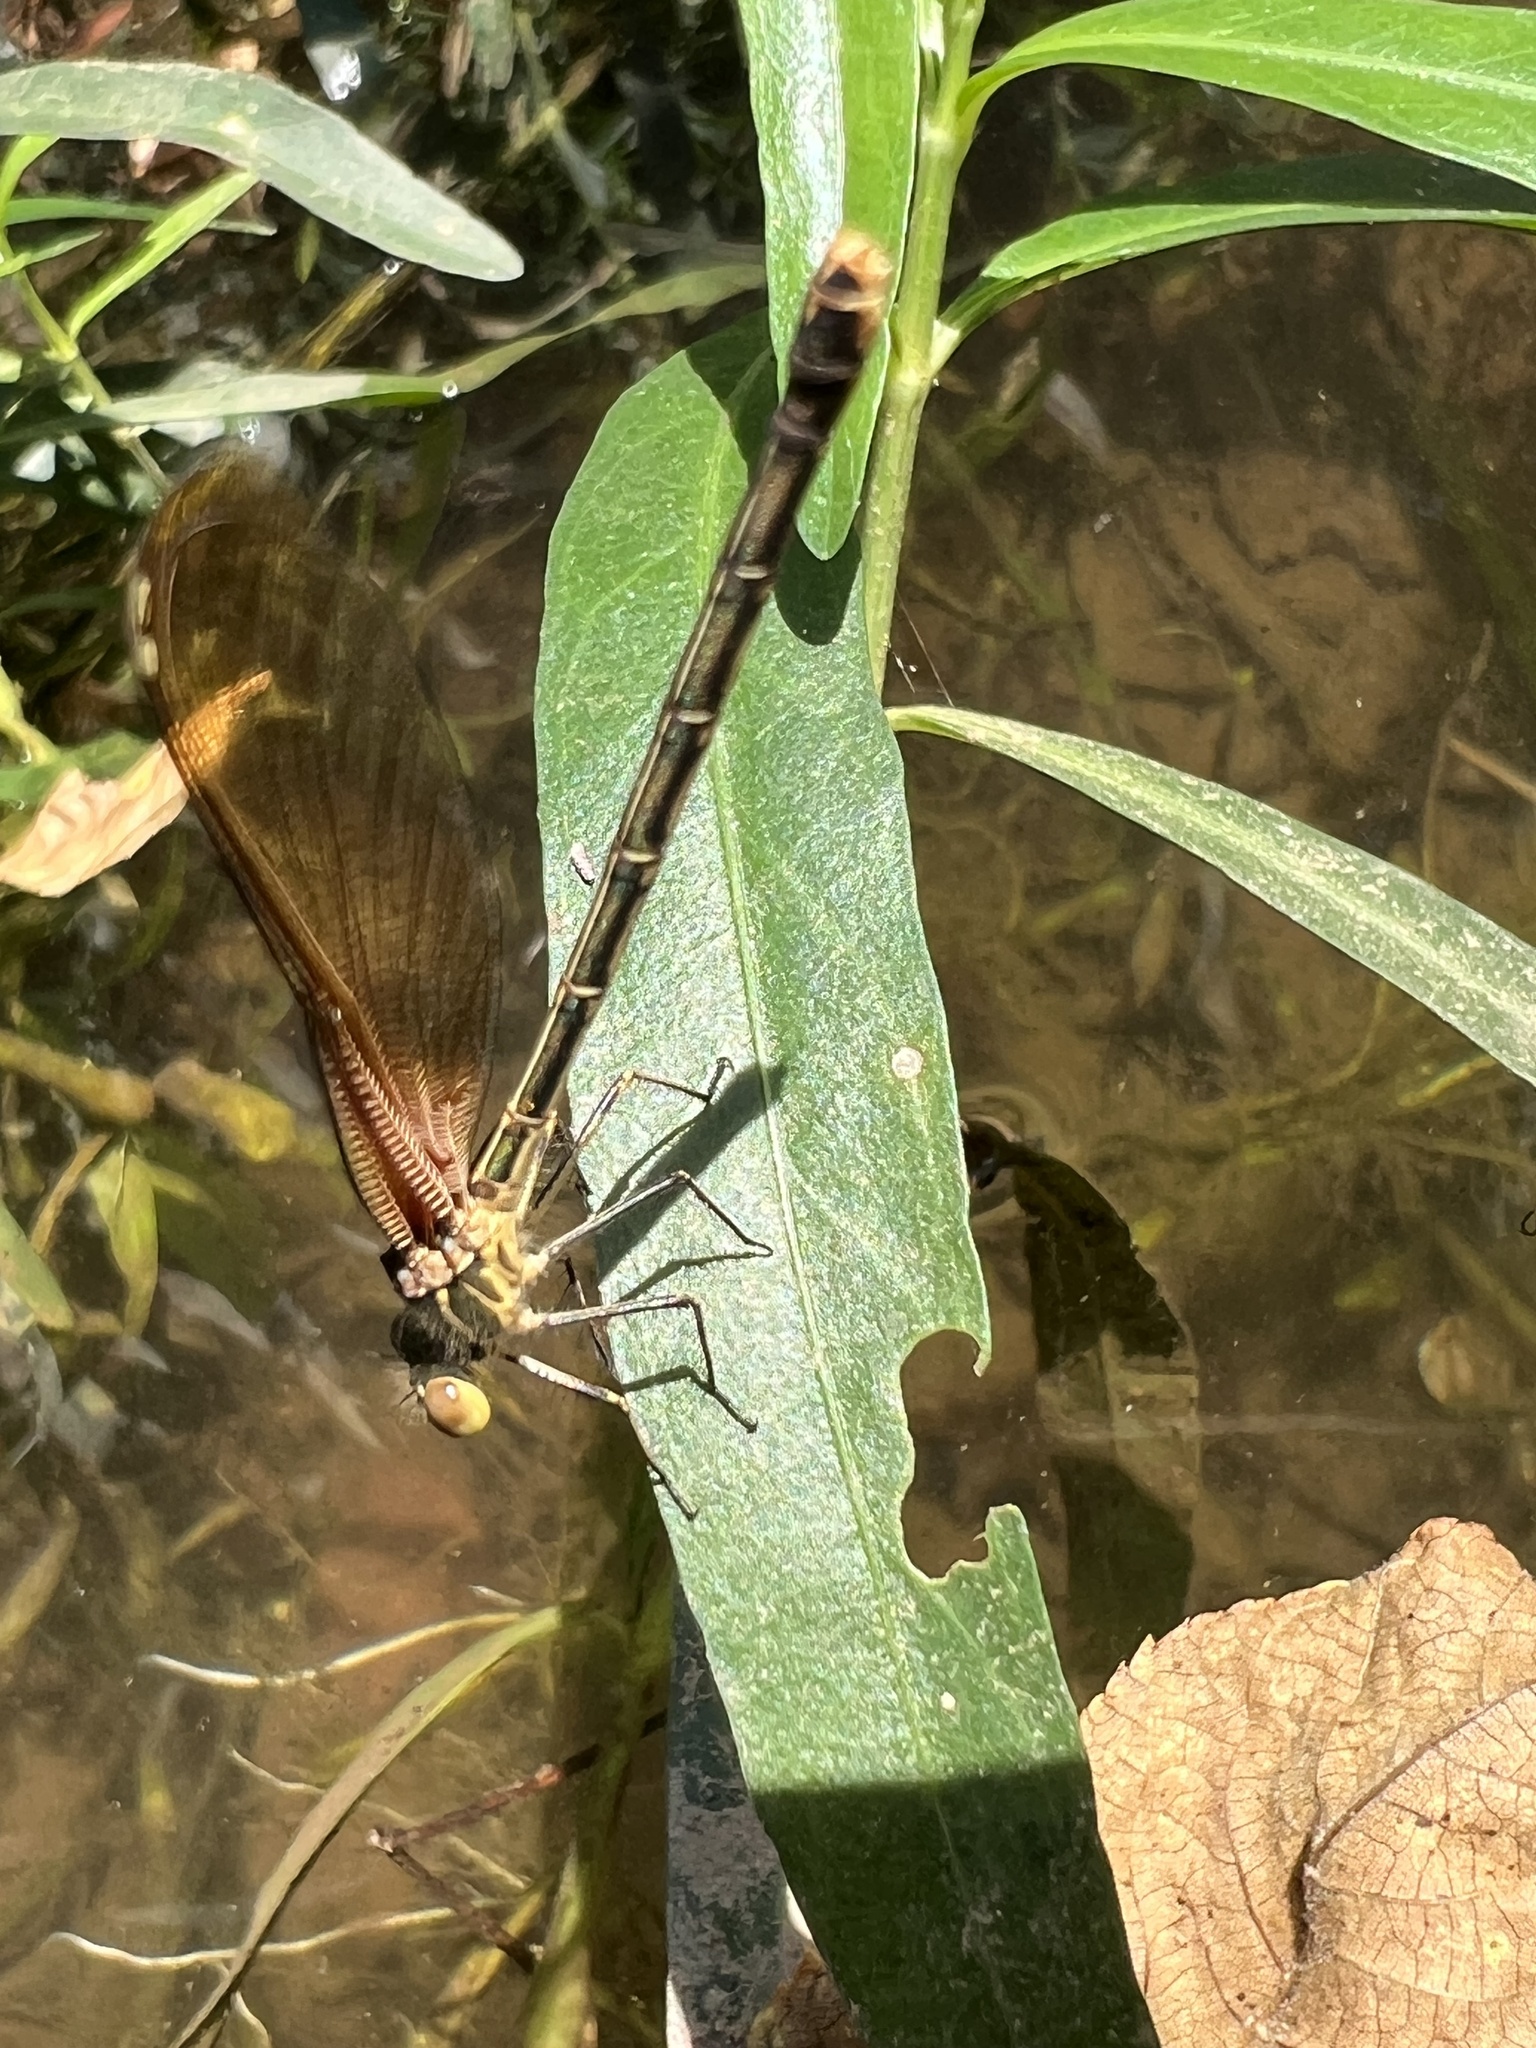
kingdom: Animalia
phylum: Arthropoda
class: Insecta
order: Odonata
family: Calopterygidae
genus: Hetaerina
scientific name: Hetaerina americana
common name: American rubyspot
